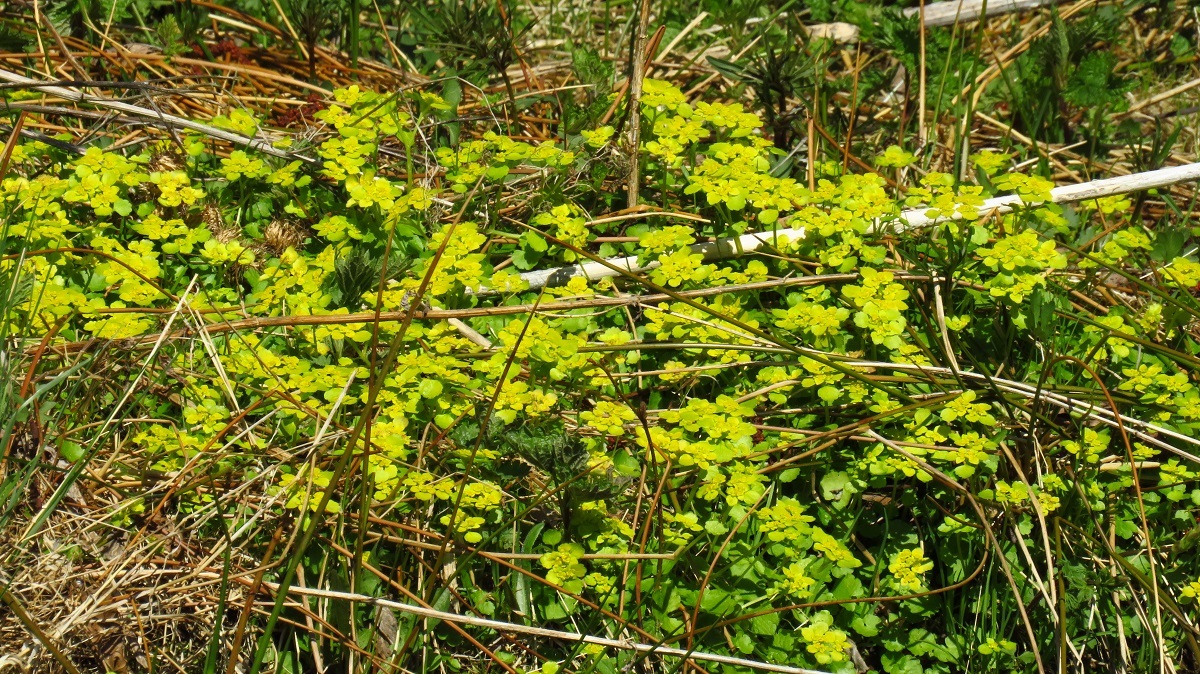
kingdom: Plantae
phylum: Tracheophyta
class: Magnoliopsida
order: Saxifragales
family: Saxifragaceae
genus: Chrysosplenium
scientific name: Chrysosplenium alternifolium
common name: Alternate-leaved golden-saxifrage
